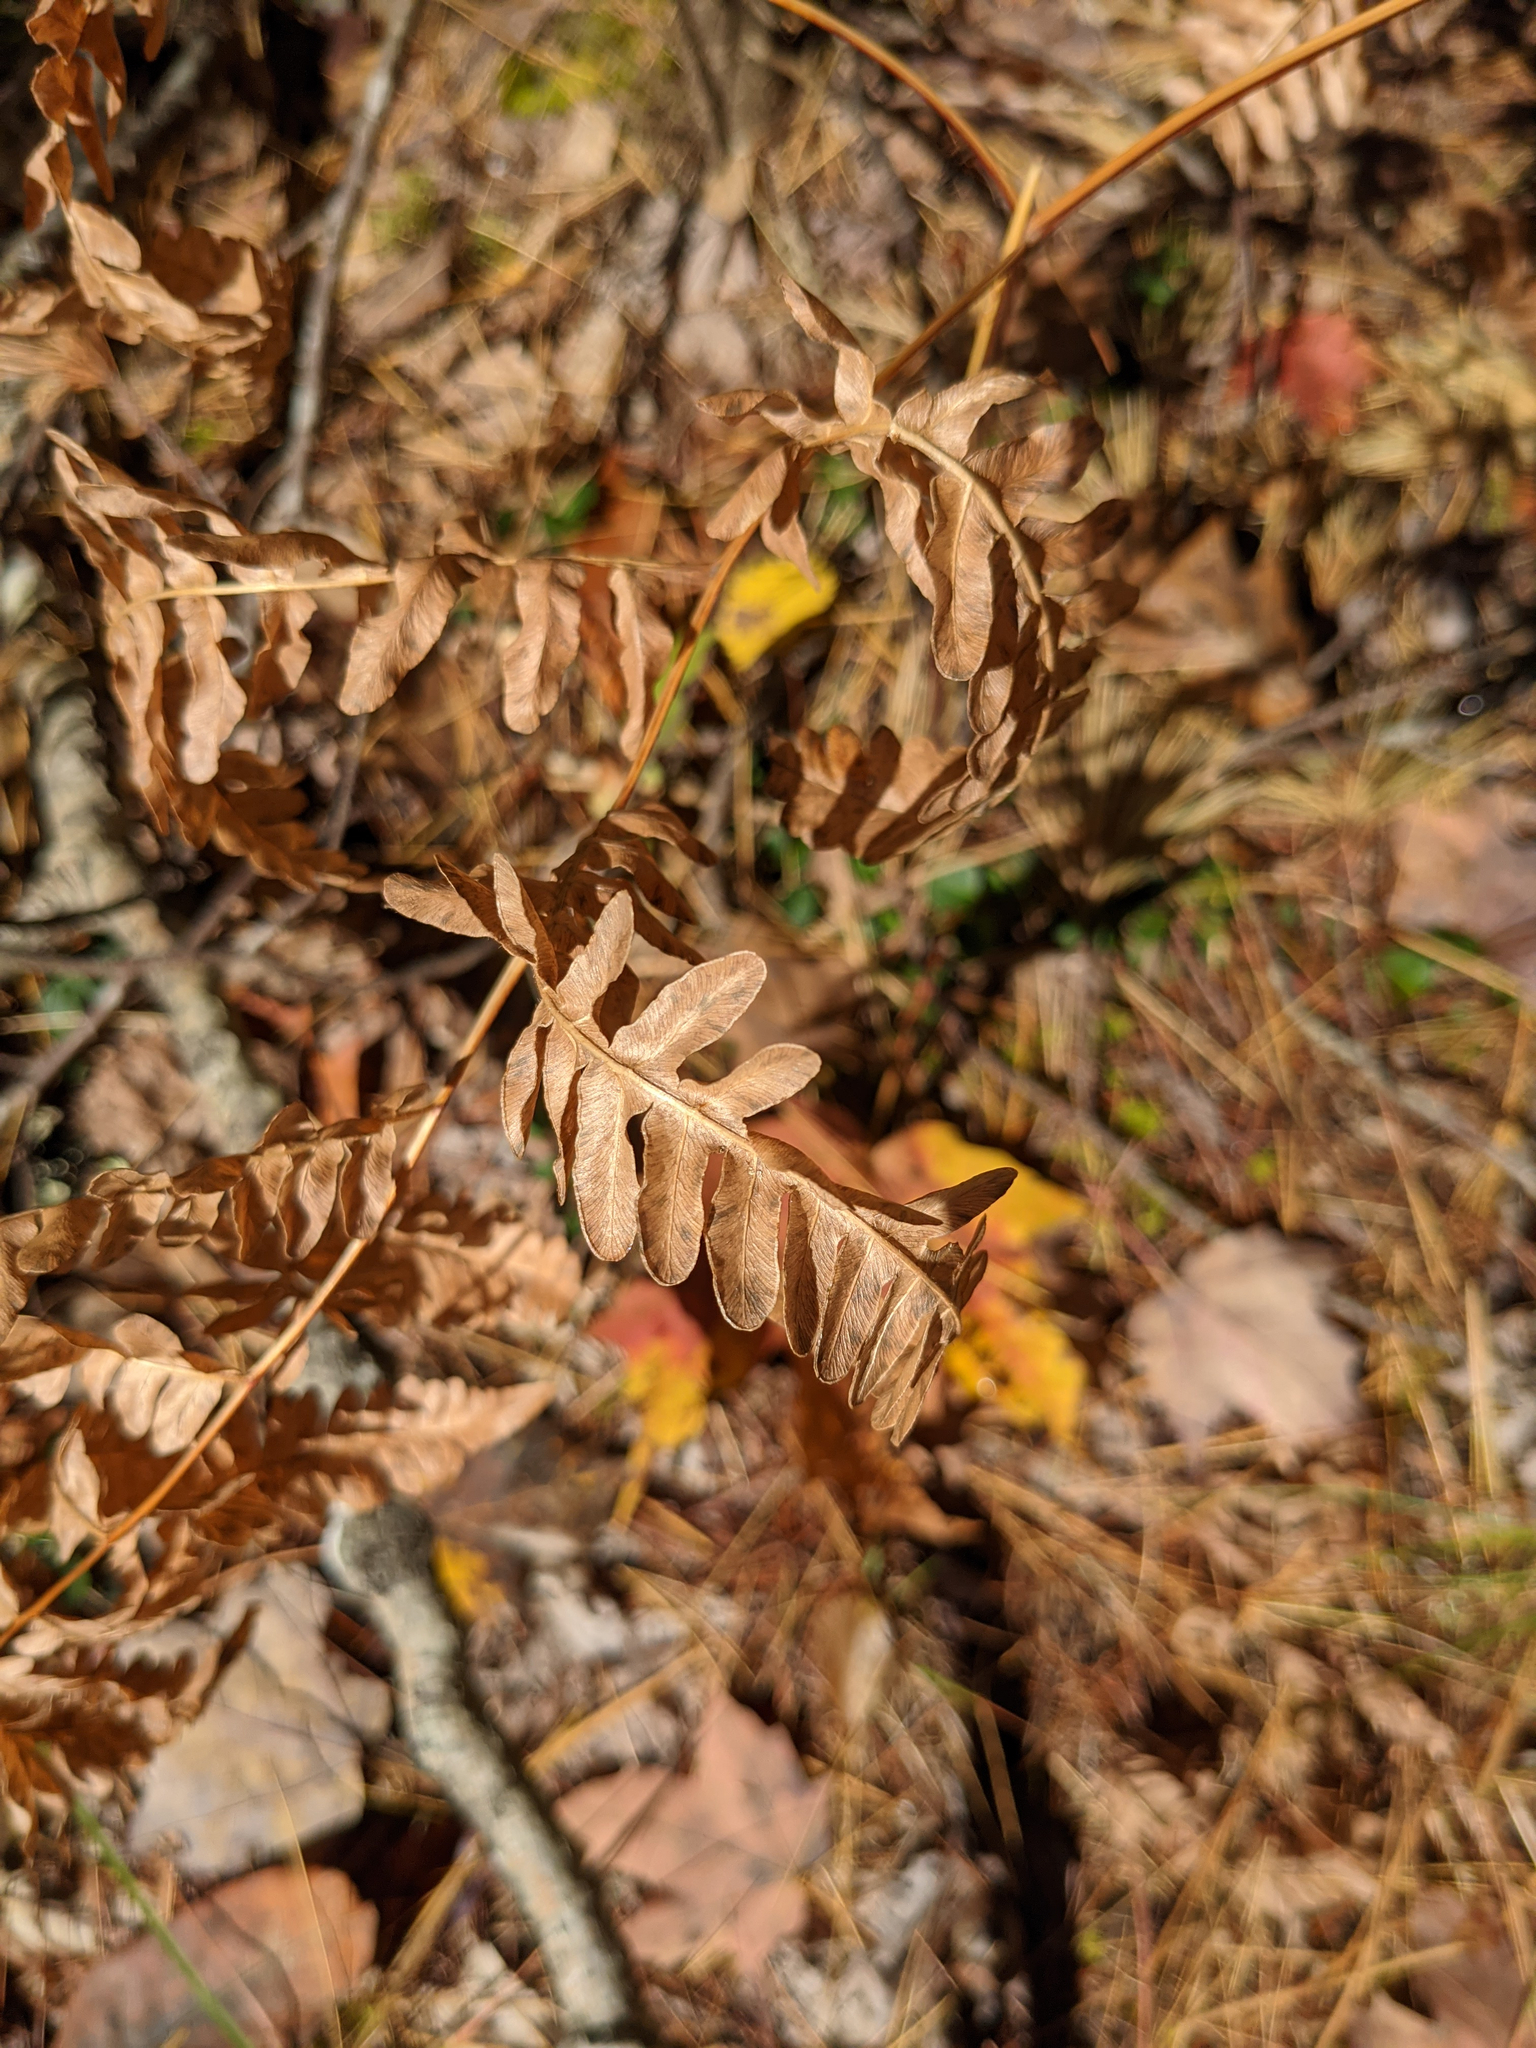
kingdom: Plantae
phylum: Tracheophyta
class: Polypodiopsida
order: Polypodiales
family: Dennstaedtiaceae
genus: Pteridium
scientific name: Pteridium aquilinum
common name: Bracken
